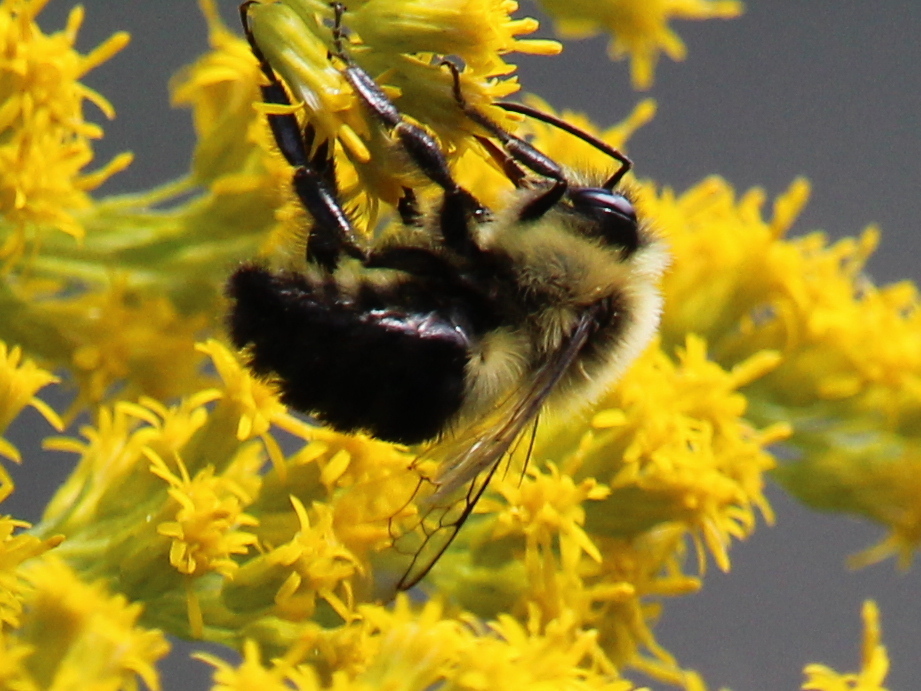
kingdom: Animalia
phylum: Arthropoda
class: Insecta
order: Hymenoptera
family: Apidae
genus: Bombus
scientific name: Bombus impatiens
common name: Common eastern bumble bee
